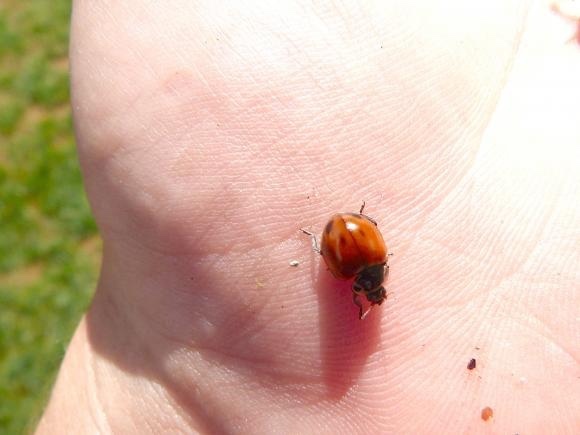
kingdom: Animalia
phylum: Arthropoda
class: Insecta
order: Coleoptera
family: Coccinellidae
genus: Myzia
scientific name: Myzia pullata
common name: Streaked lady beetle
